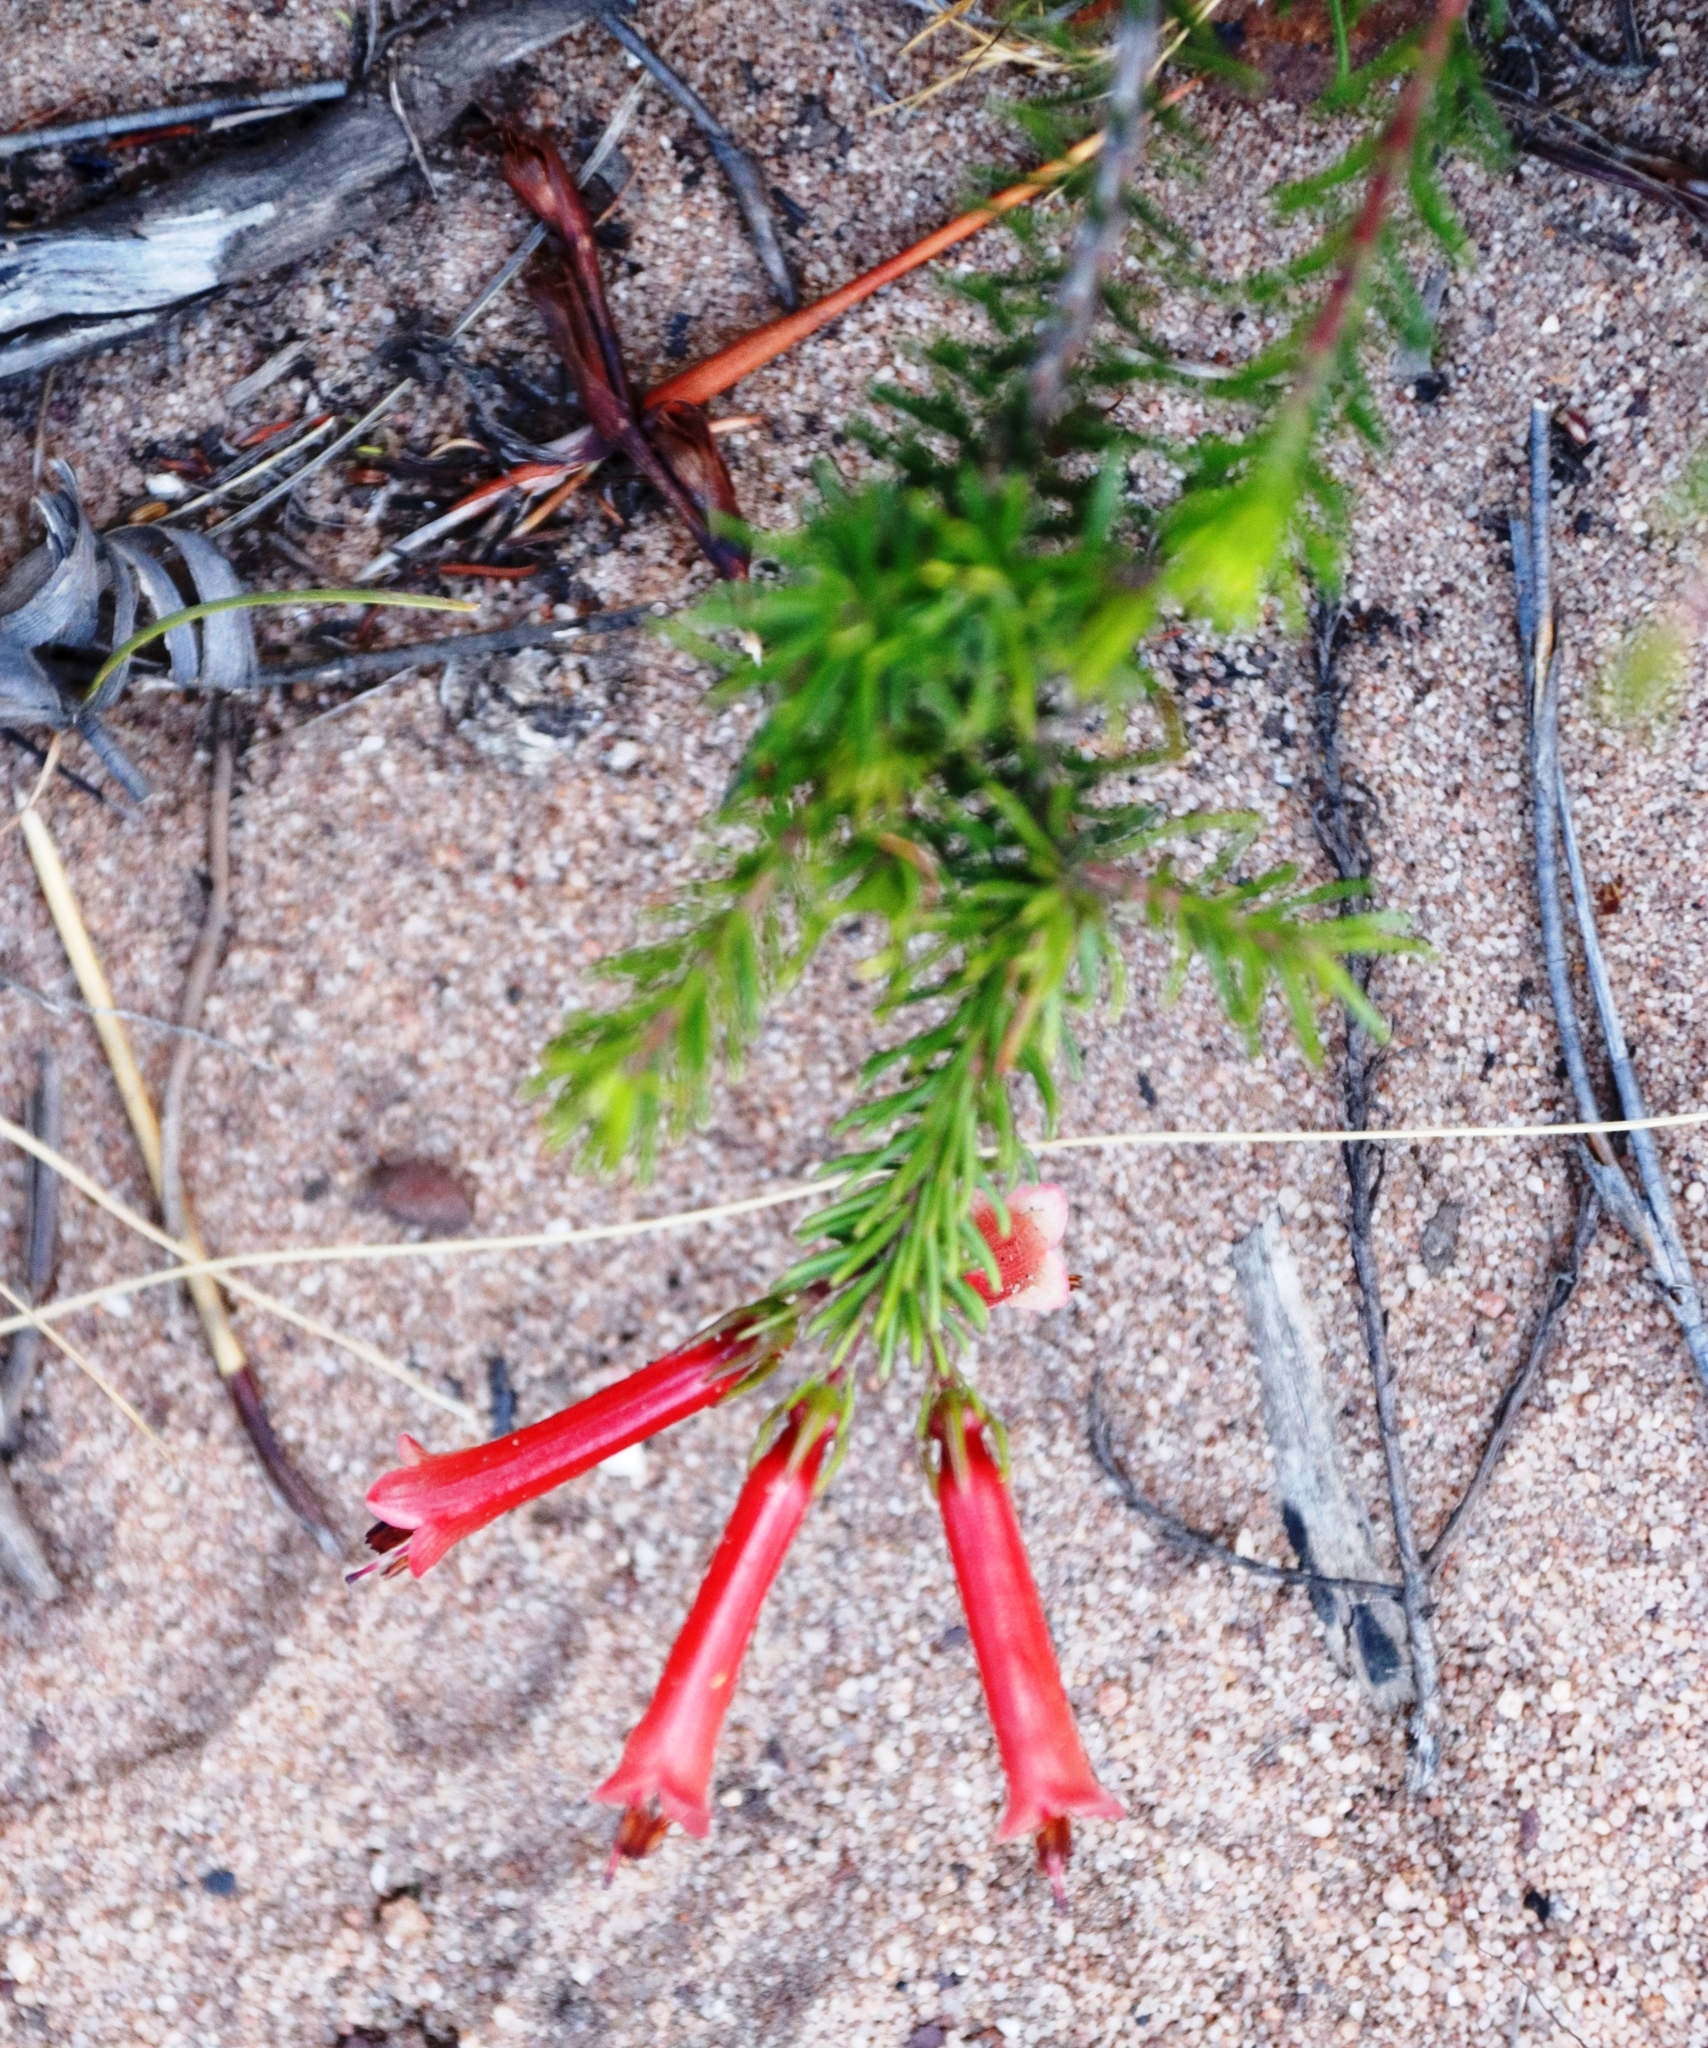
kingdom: Plantae
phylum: Tracheophyta
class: Magnoliopsida
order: Ericales
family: Ericaceae
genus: Erica
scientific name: Erica nevillei
